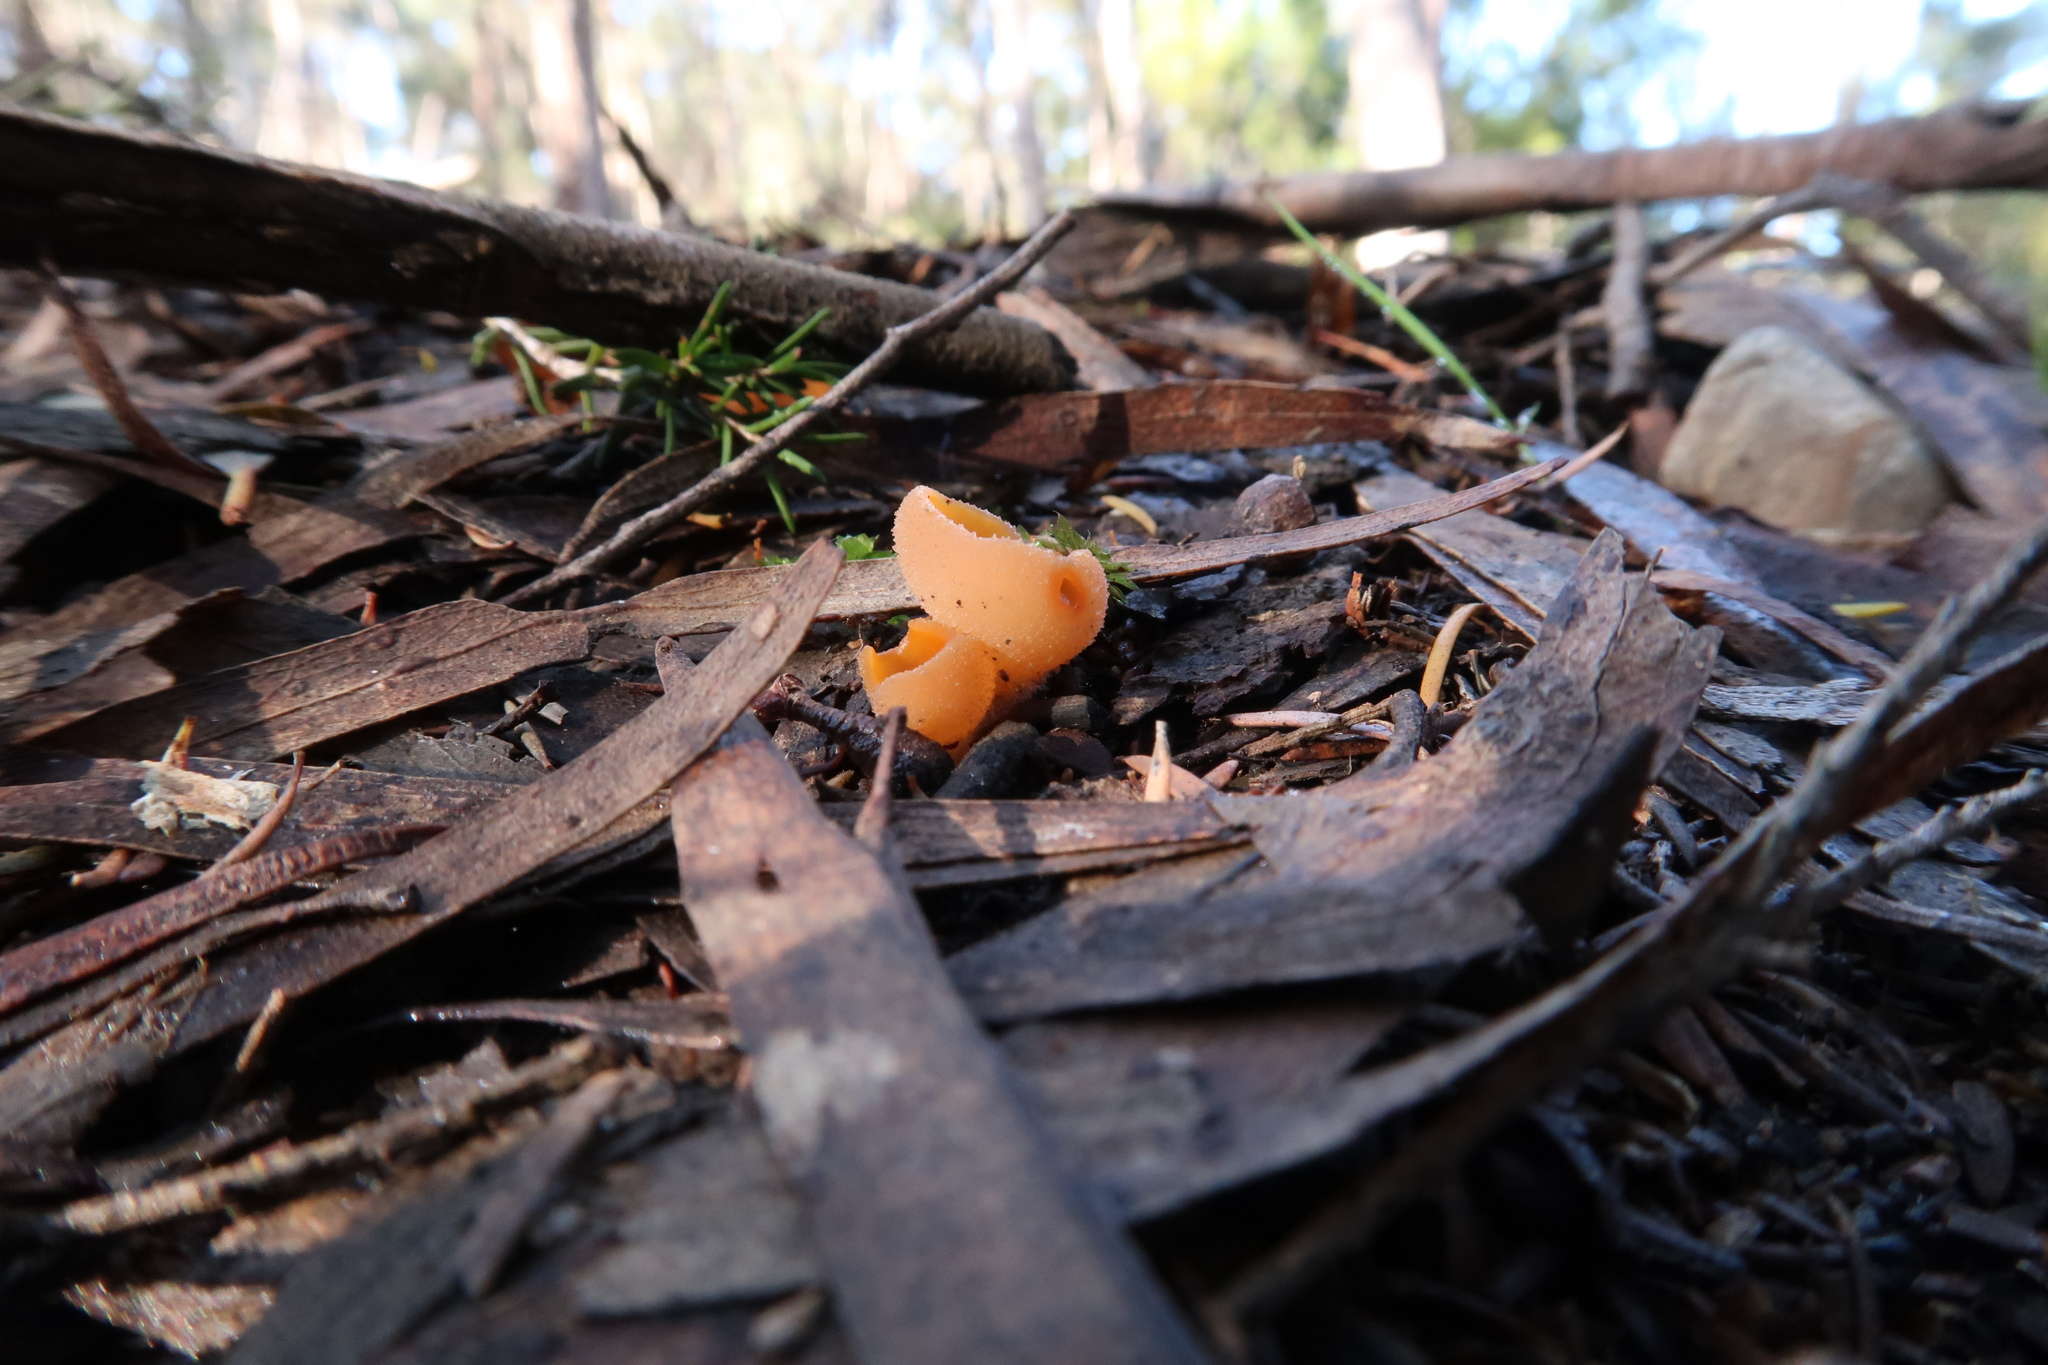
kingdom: Fungi
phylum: Ascomycota
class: Pezizomycetes
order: Pezizales
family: Pyronemataceae
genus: Sowerbyella
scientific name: Sowerbyella rhenana
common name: Stalked orange peel fungus
